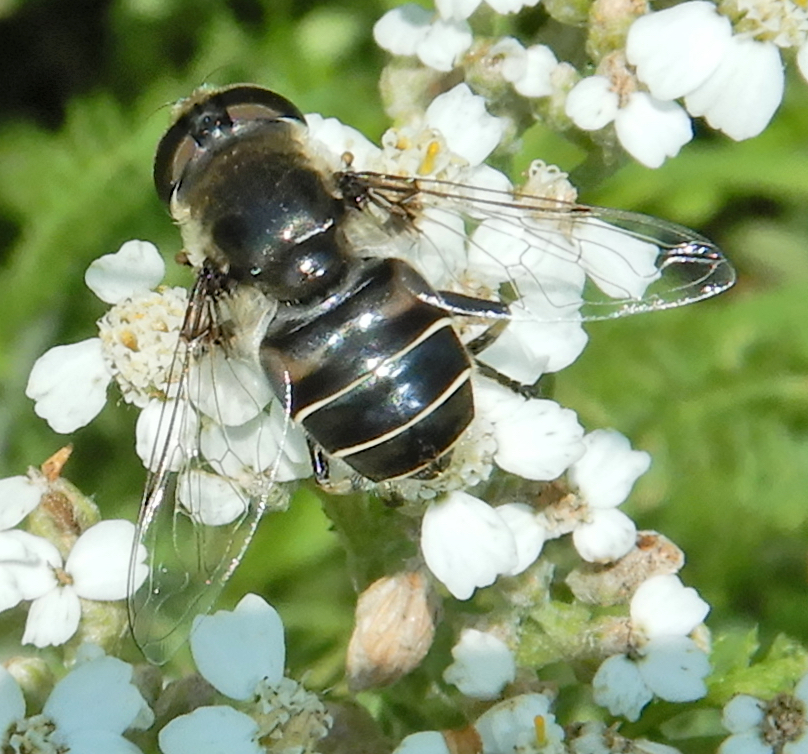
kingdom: Animalia
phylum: Arthropoda
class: Insecta
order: Diptera
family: Syrphidae
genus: Eristalis
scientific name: Eristalis dimidiata
